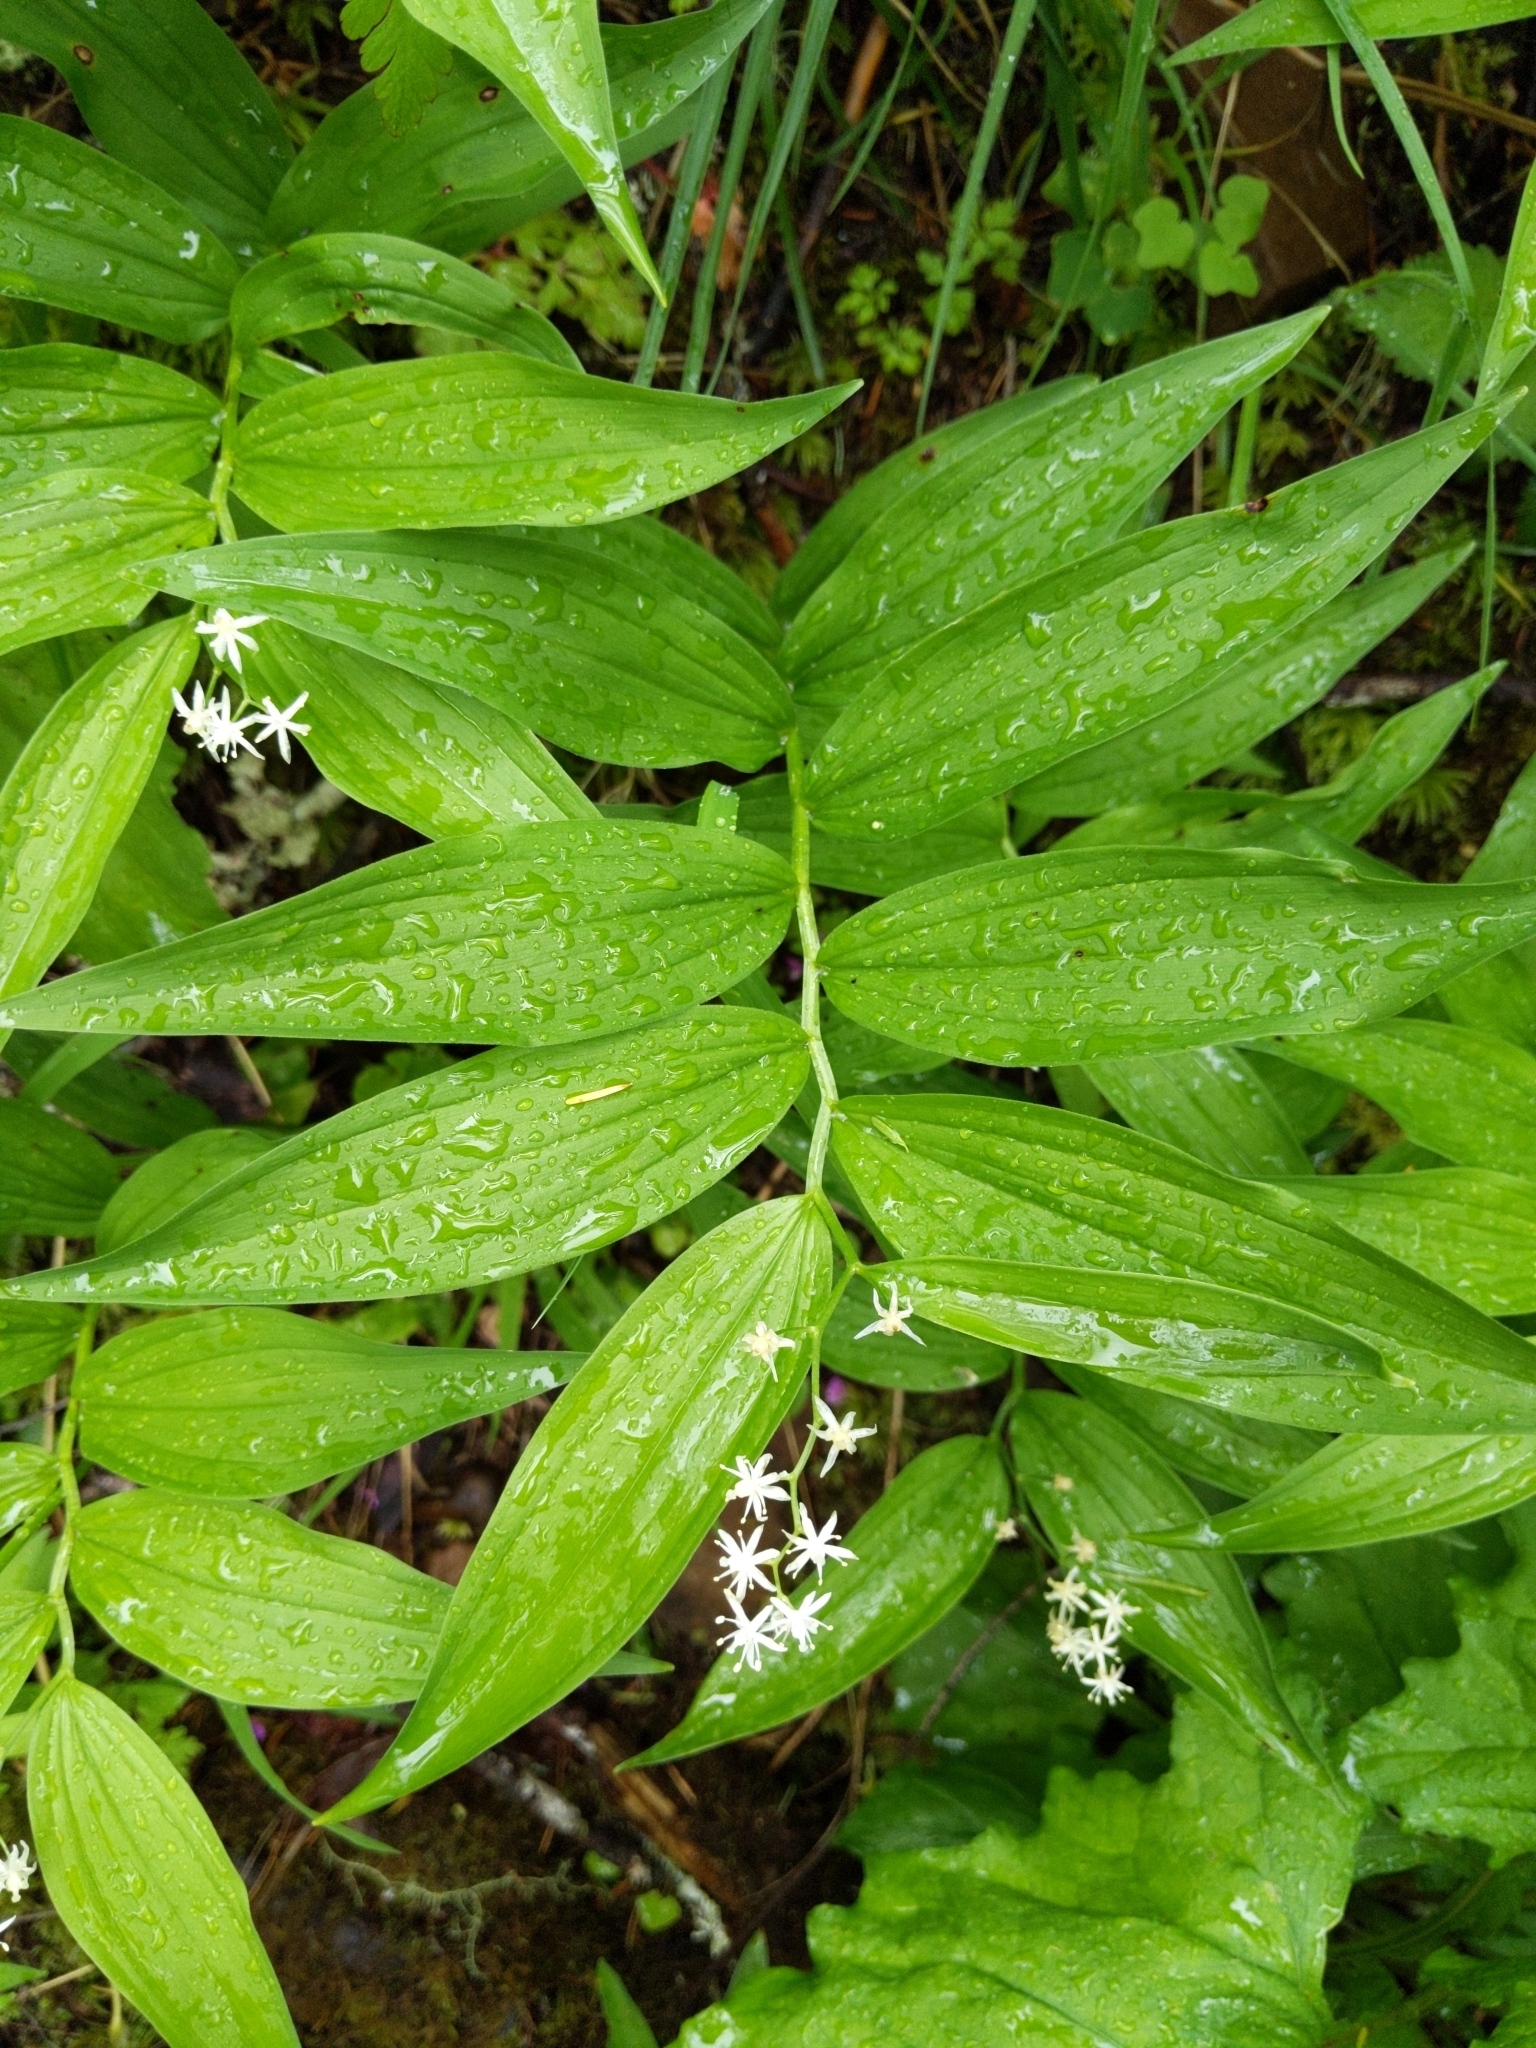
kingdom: Plantae
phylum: Tracheophyta
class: Liliopsida
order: Asparagales
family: Asparagaceae
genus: Maianthemum
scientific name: Maianthemum stellatum
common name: Little false solomon's seal
